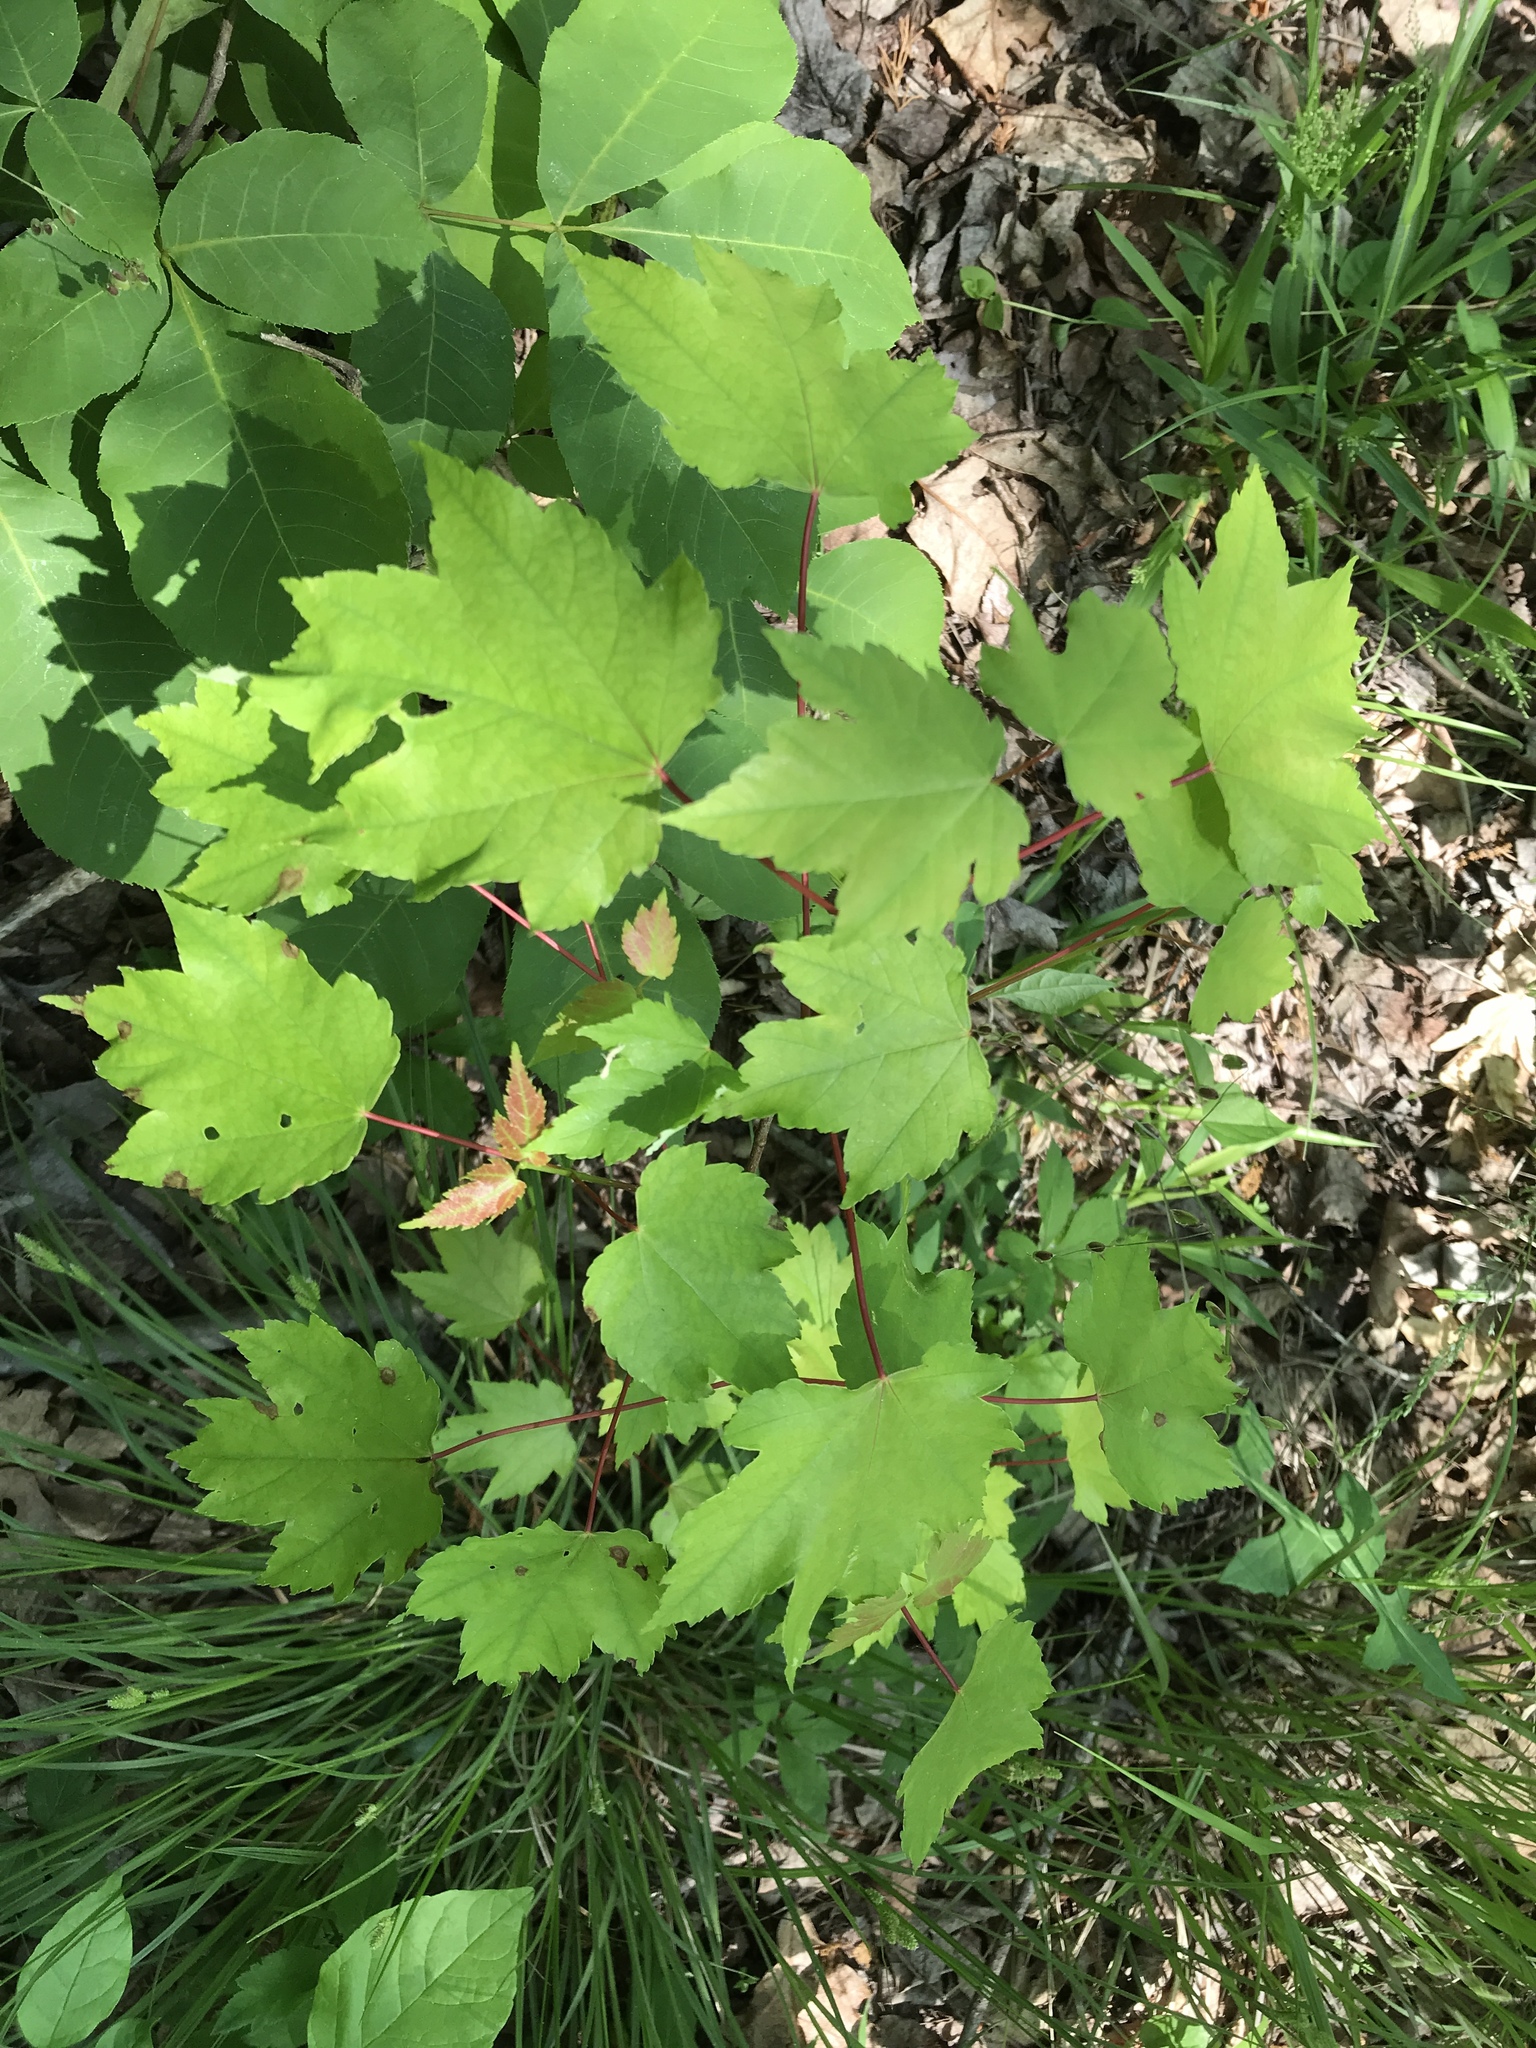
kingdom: Plantae
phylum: Tracheophyta
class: Magnoliopsida
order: Sapindales
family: Sapindaceae
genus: Acer
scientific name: Acer rubrum
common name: Red maple
